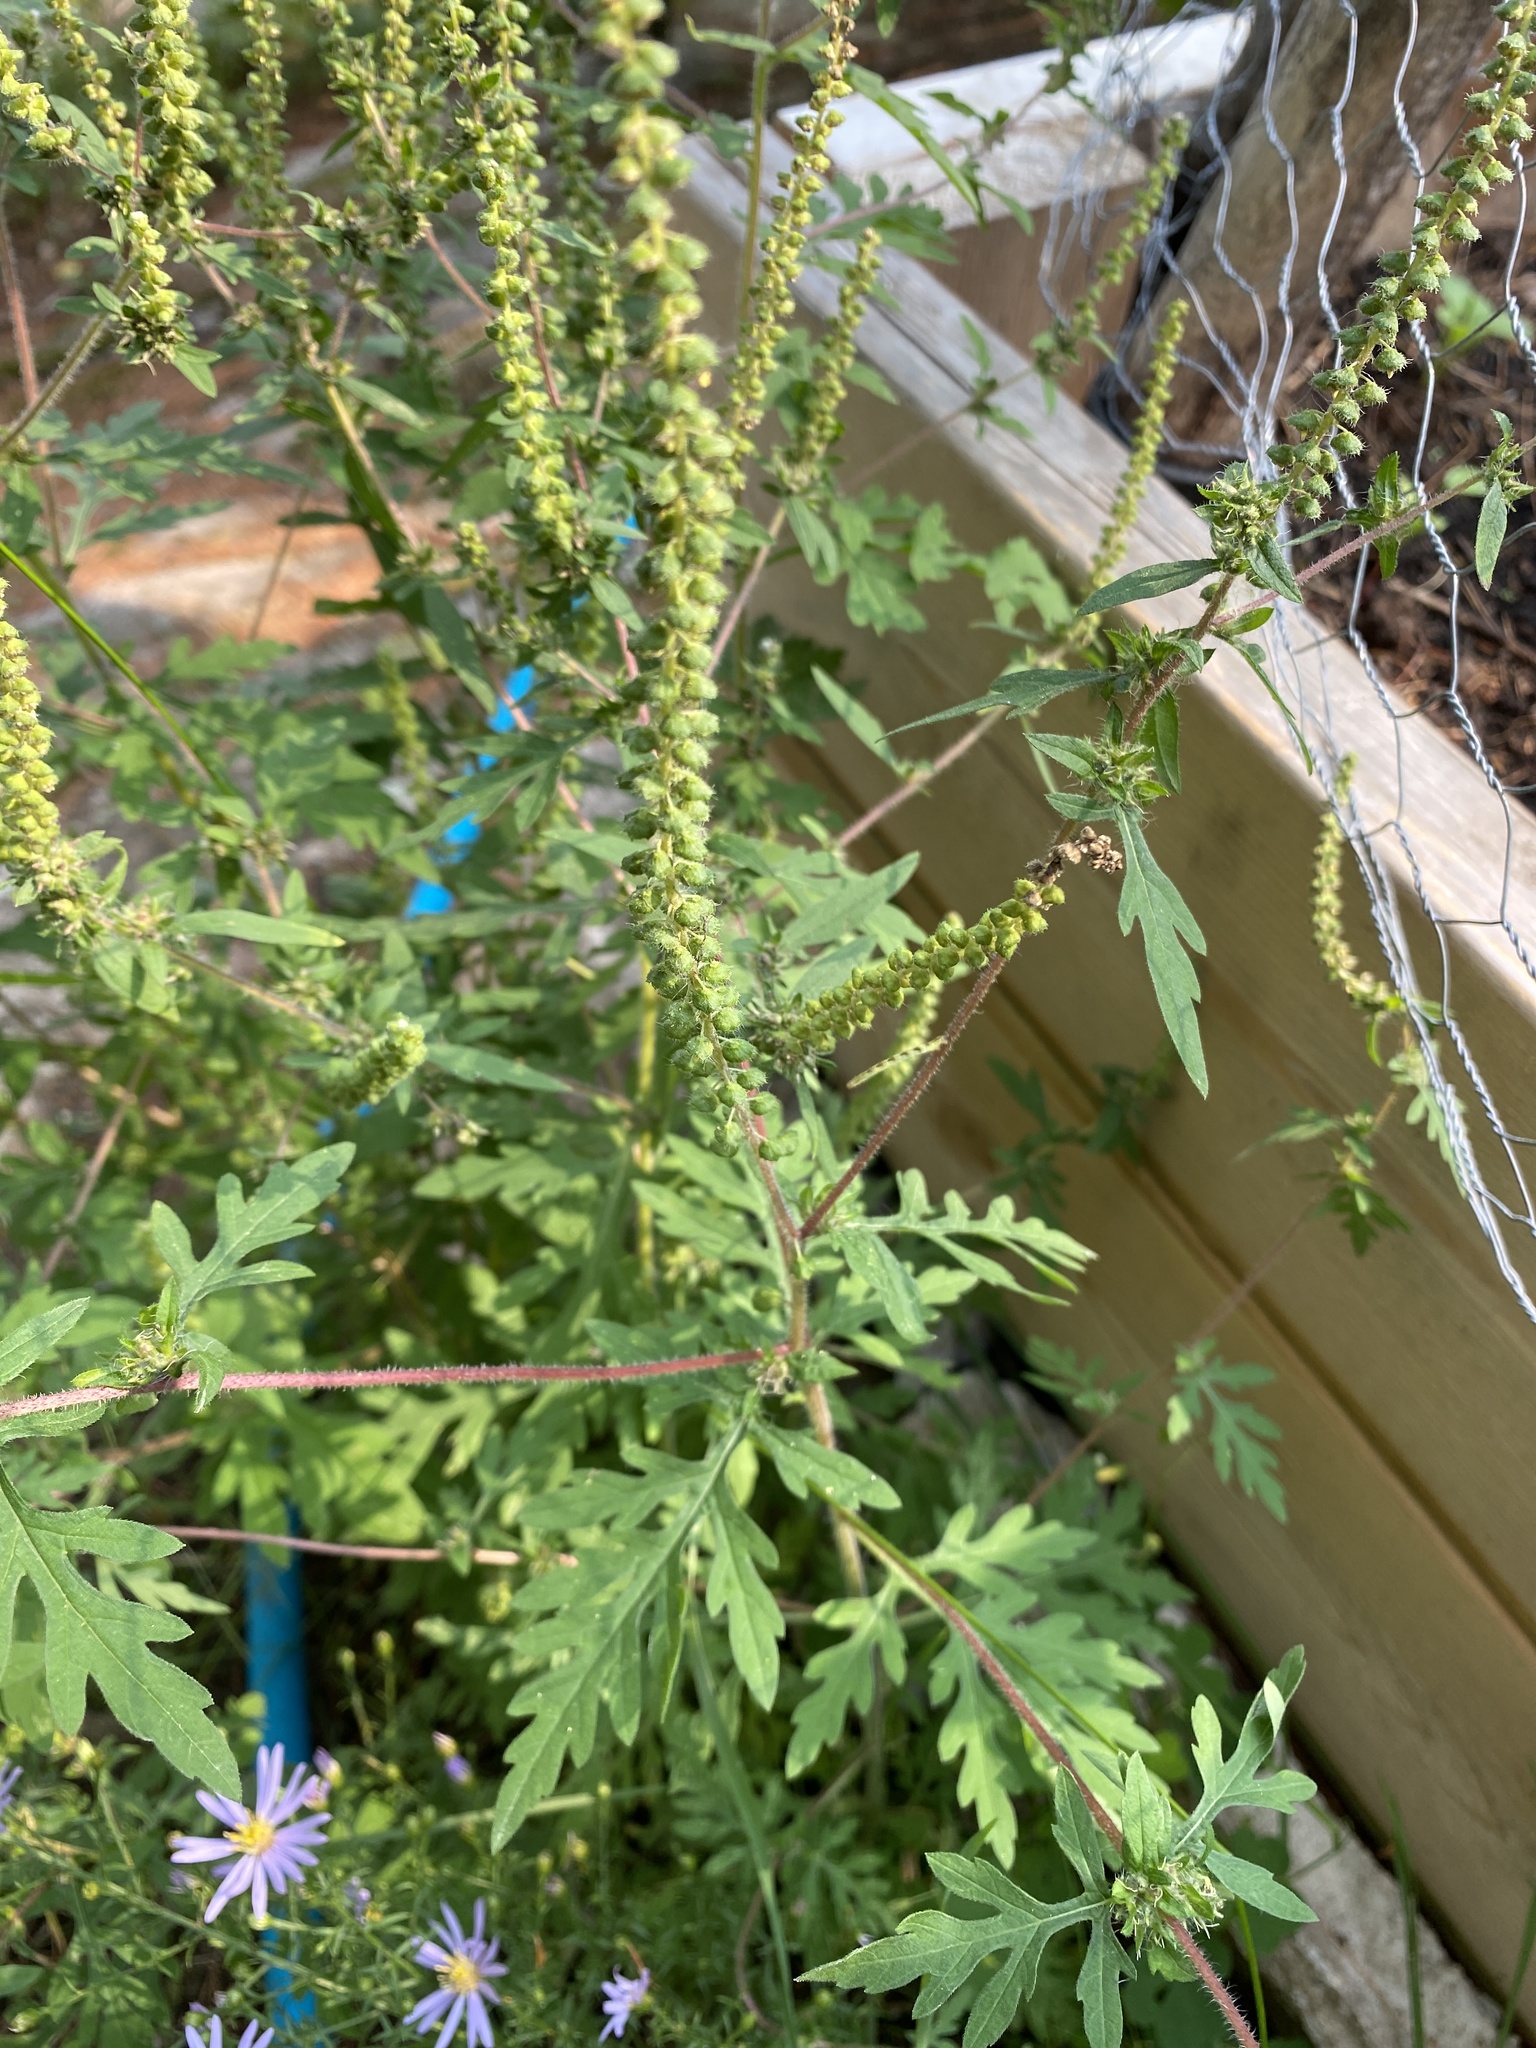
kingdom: Plantae
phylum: Tracheophyta
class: Magnoliopsida
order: Asterales
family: Asteraceae
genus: Ambrosia
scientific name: Ambrosia artemisiifolia
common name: Annual ragweed
